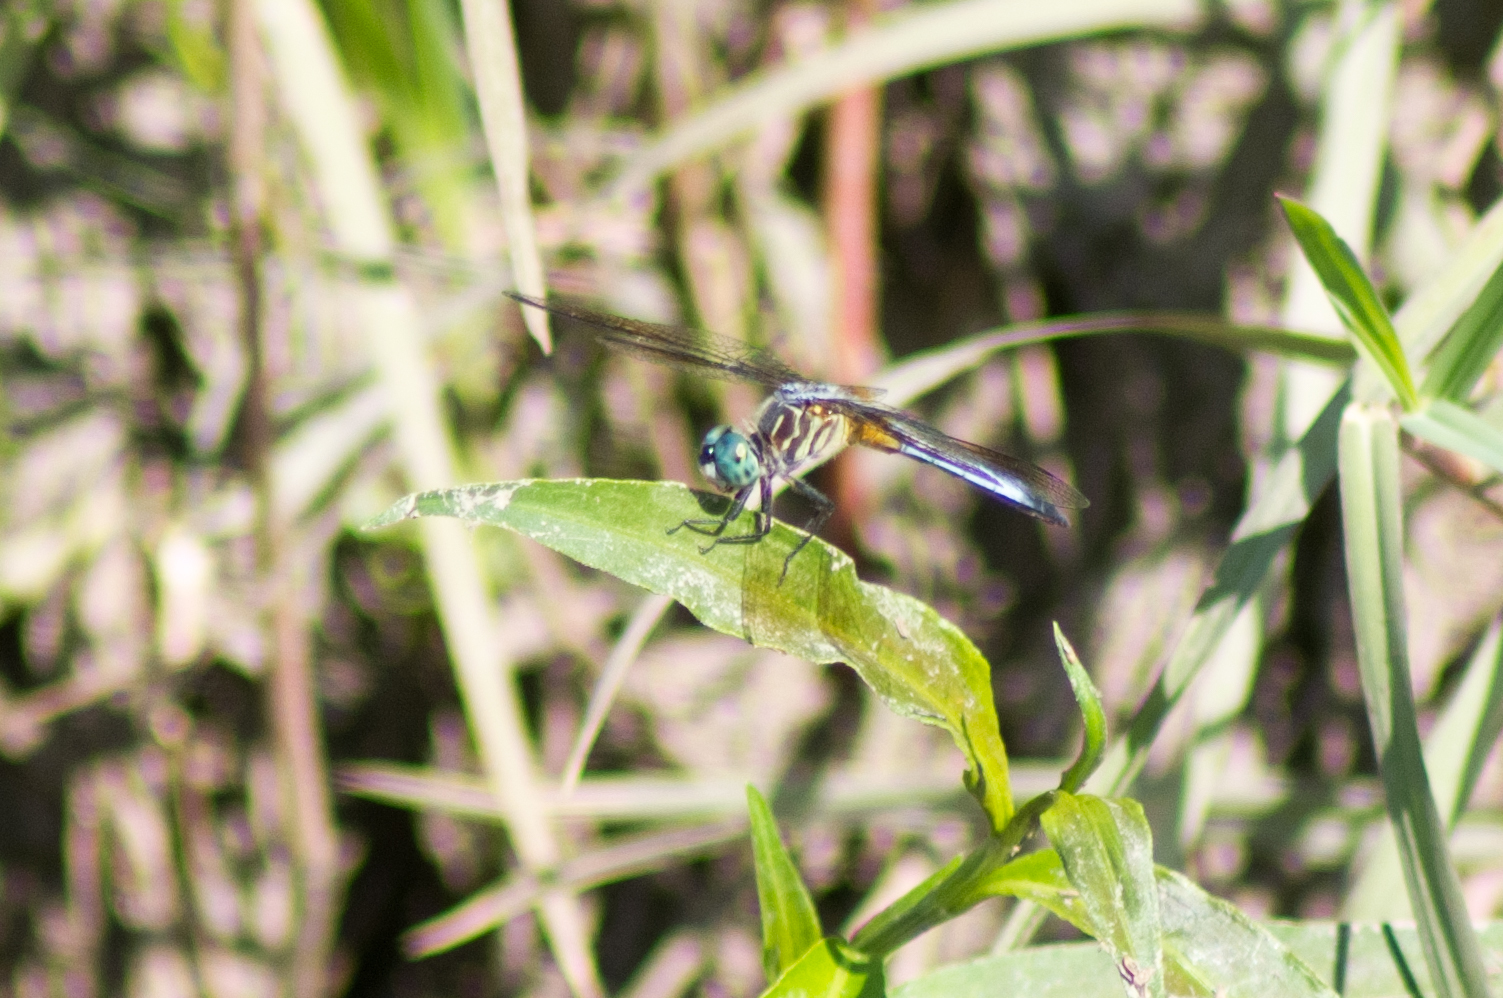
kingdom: Animalia
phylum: Arthropoda
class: Insecta
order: Odonata
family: Libellulidae
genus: Pachydiplax
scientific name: Pachydiplax longipennis
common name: Blue dasher
